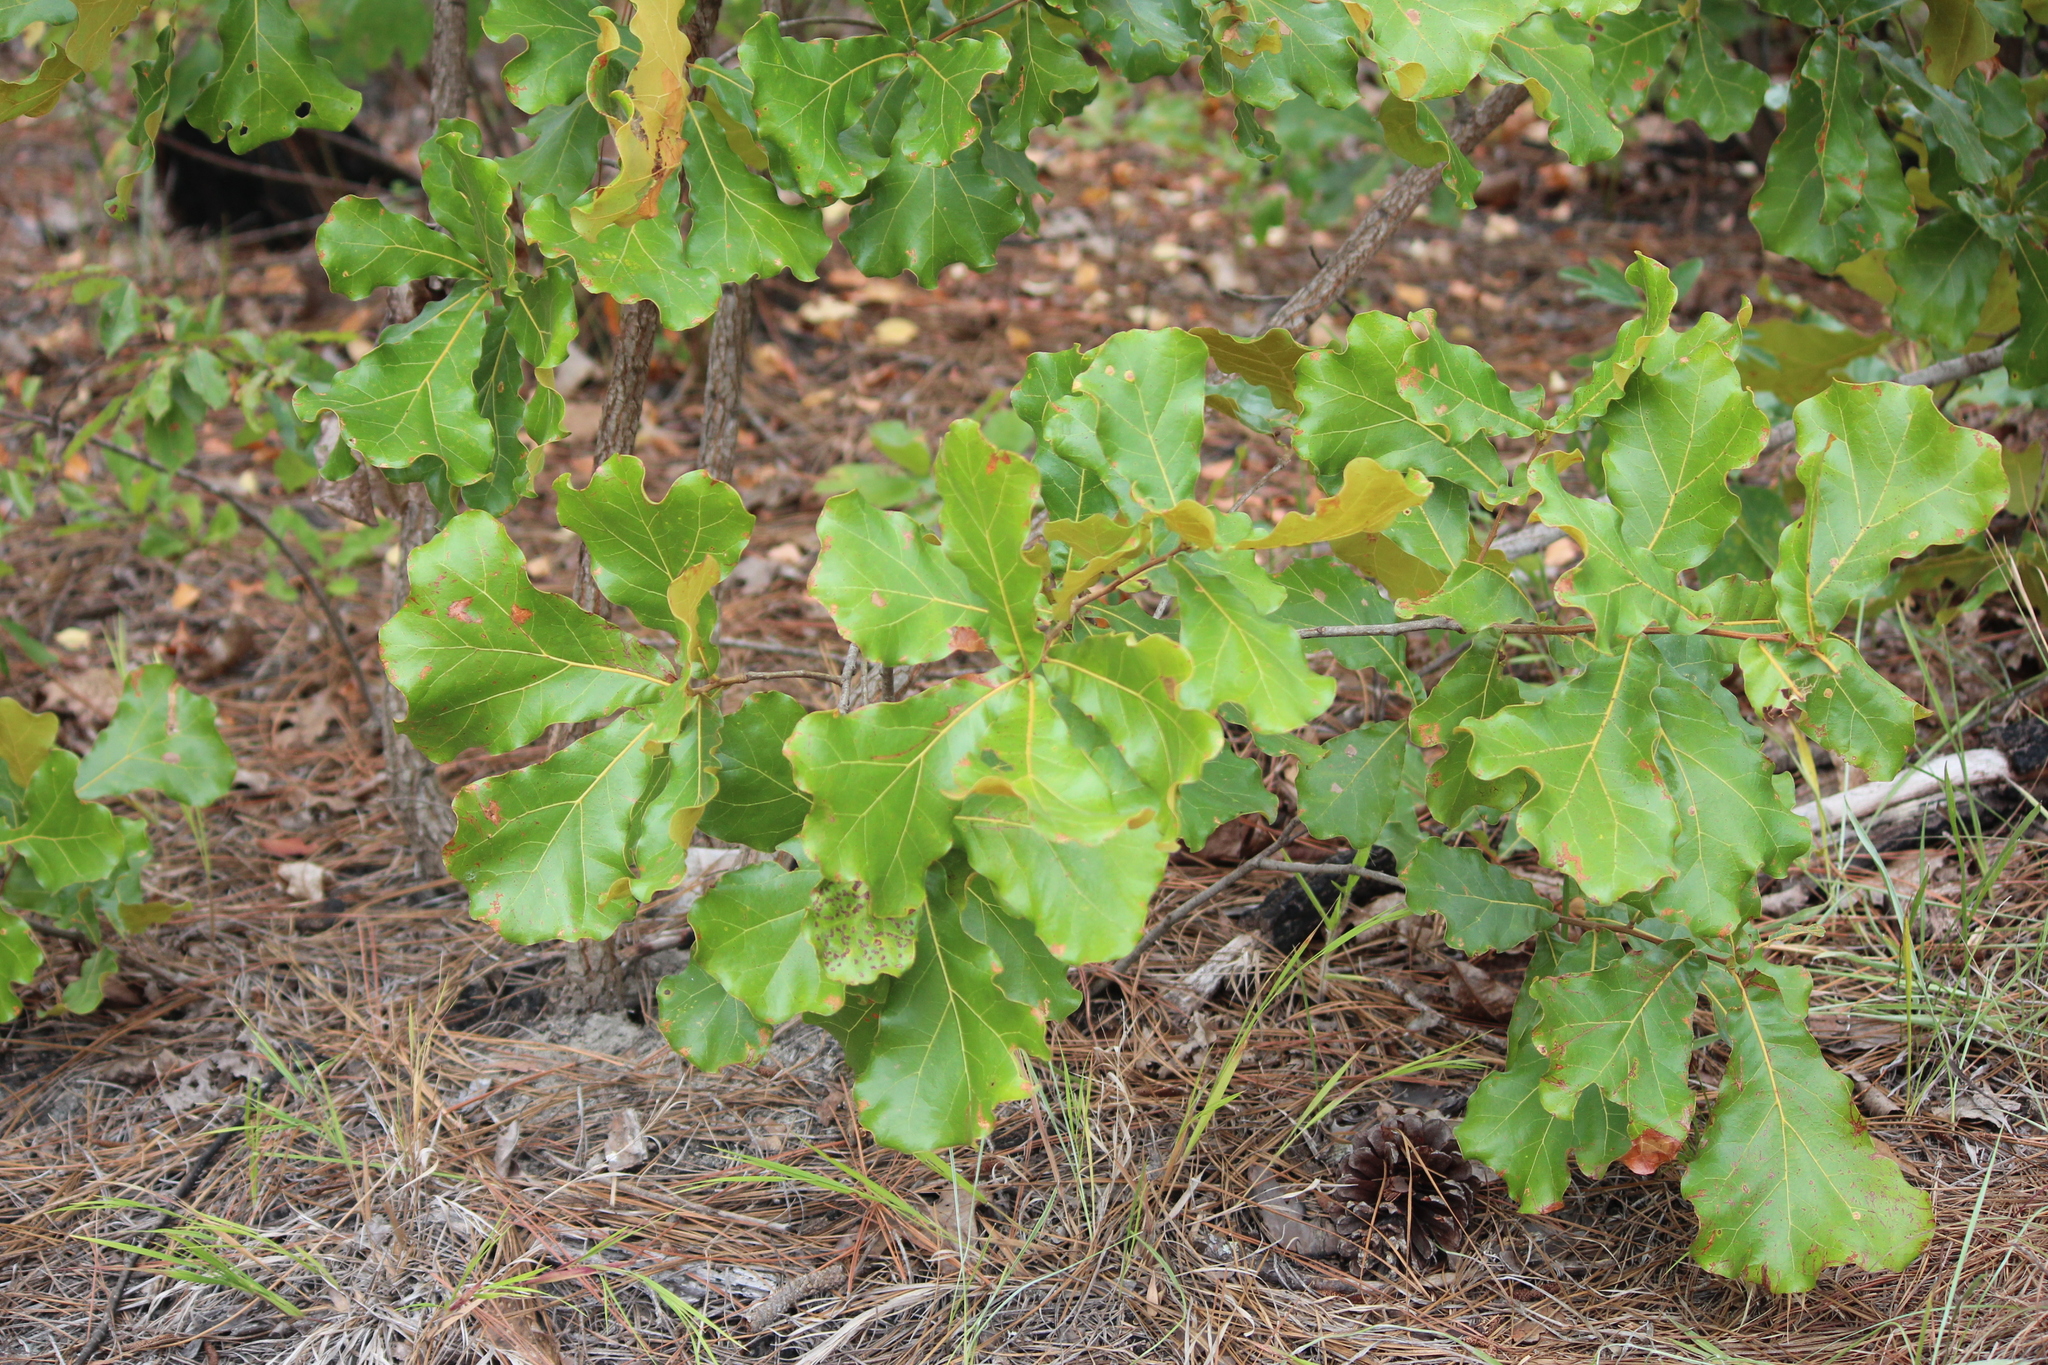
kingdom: Plantae
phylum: Tracheophyta
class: Magnoliopsida
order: Fagales
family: Fagaceae
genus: Quercus
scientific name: Quercus marilandica
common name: Blackjack oak
